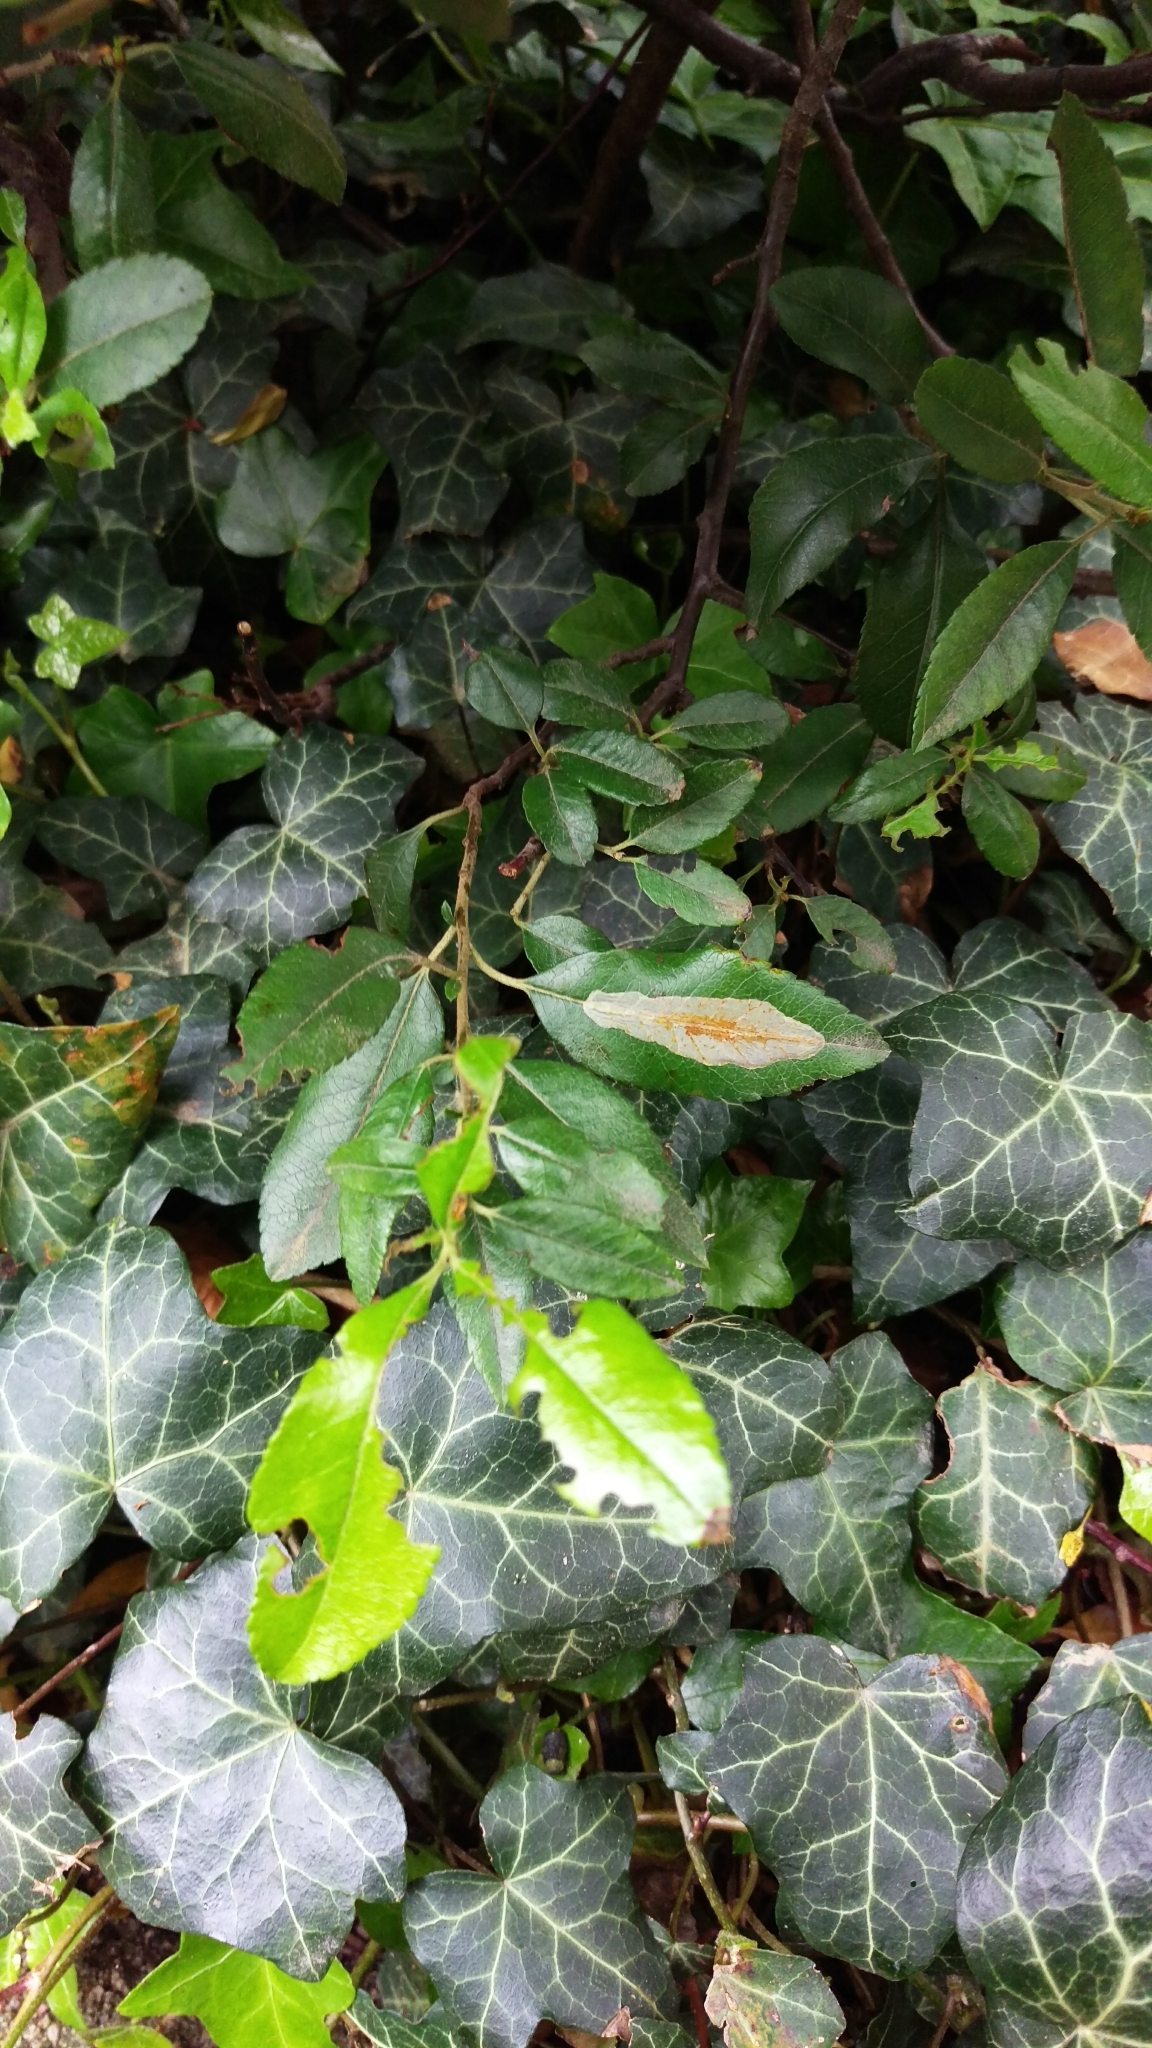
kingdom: Plantae
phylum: Tracheophyta
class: Magnoliopsida
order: Apiales
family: Araliaceae
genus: Hedera
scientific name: Hedera helix
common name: Ivy
